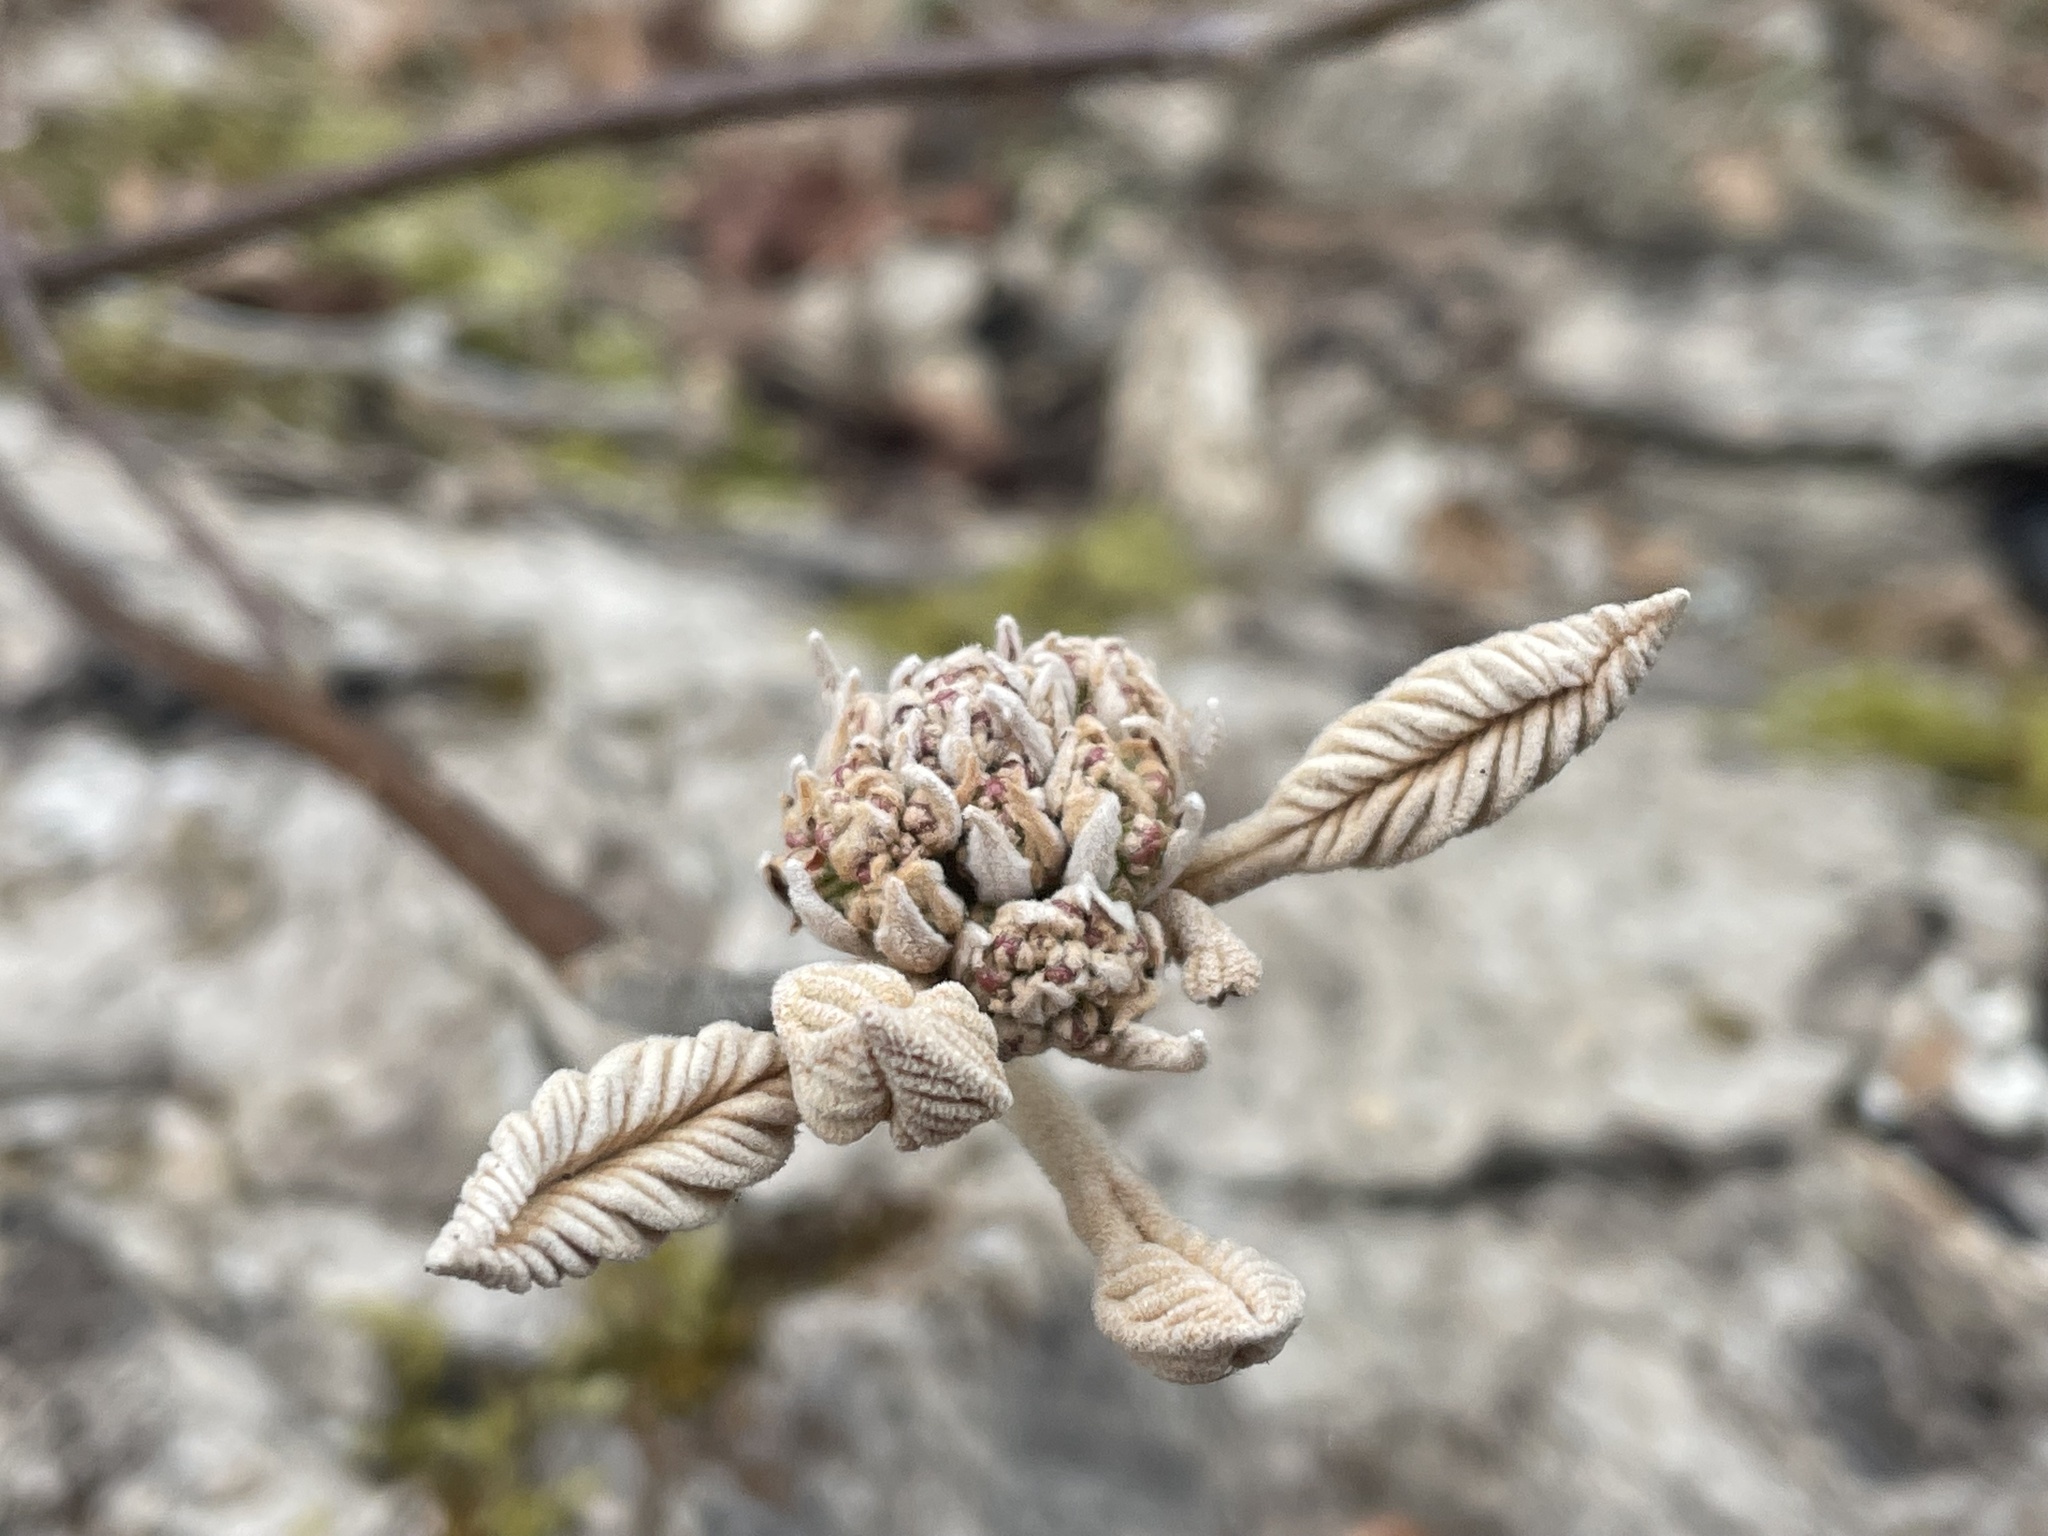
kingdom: Plantae
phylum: Tracheophyta
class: Magnoliopsida
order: Dipsacales
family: Viburnaceae
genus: Viburnum
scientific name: Viburnum lantanoides
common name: Hobblebush
